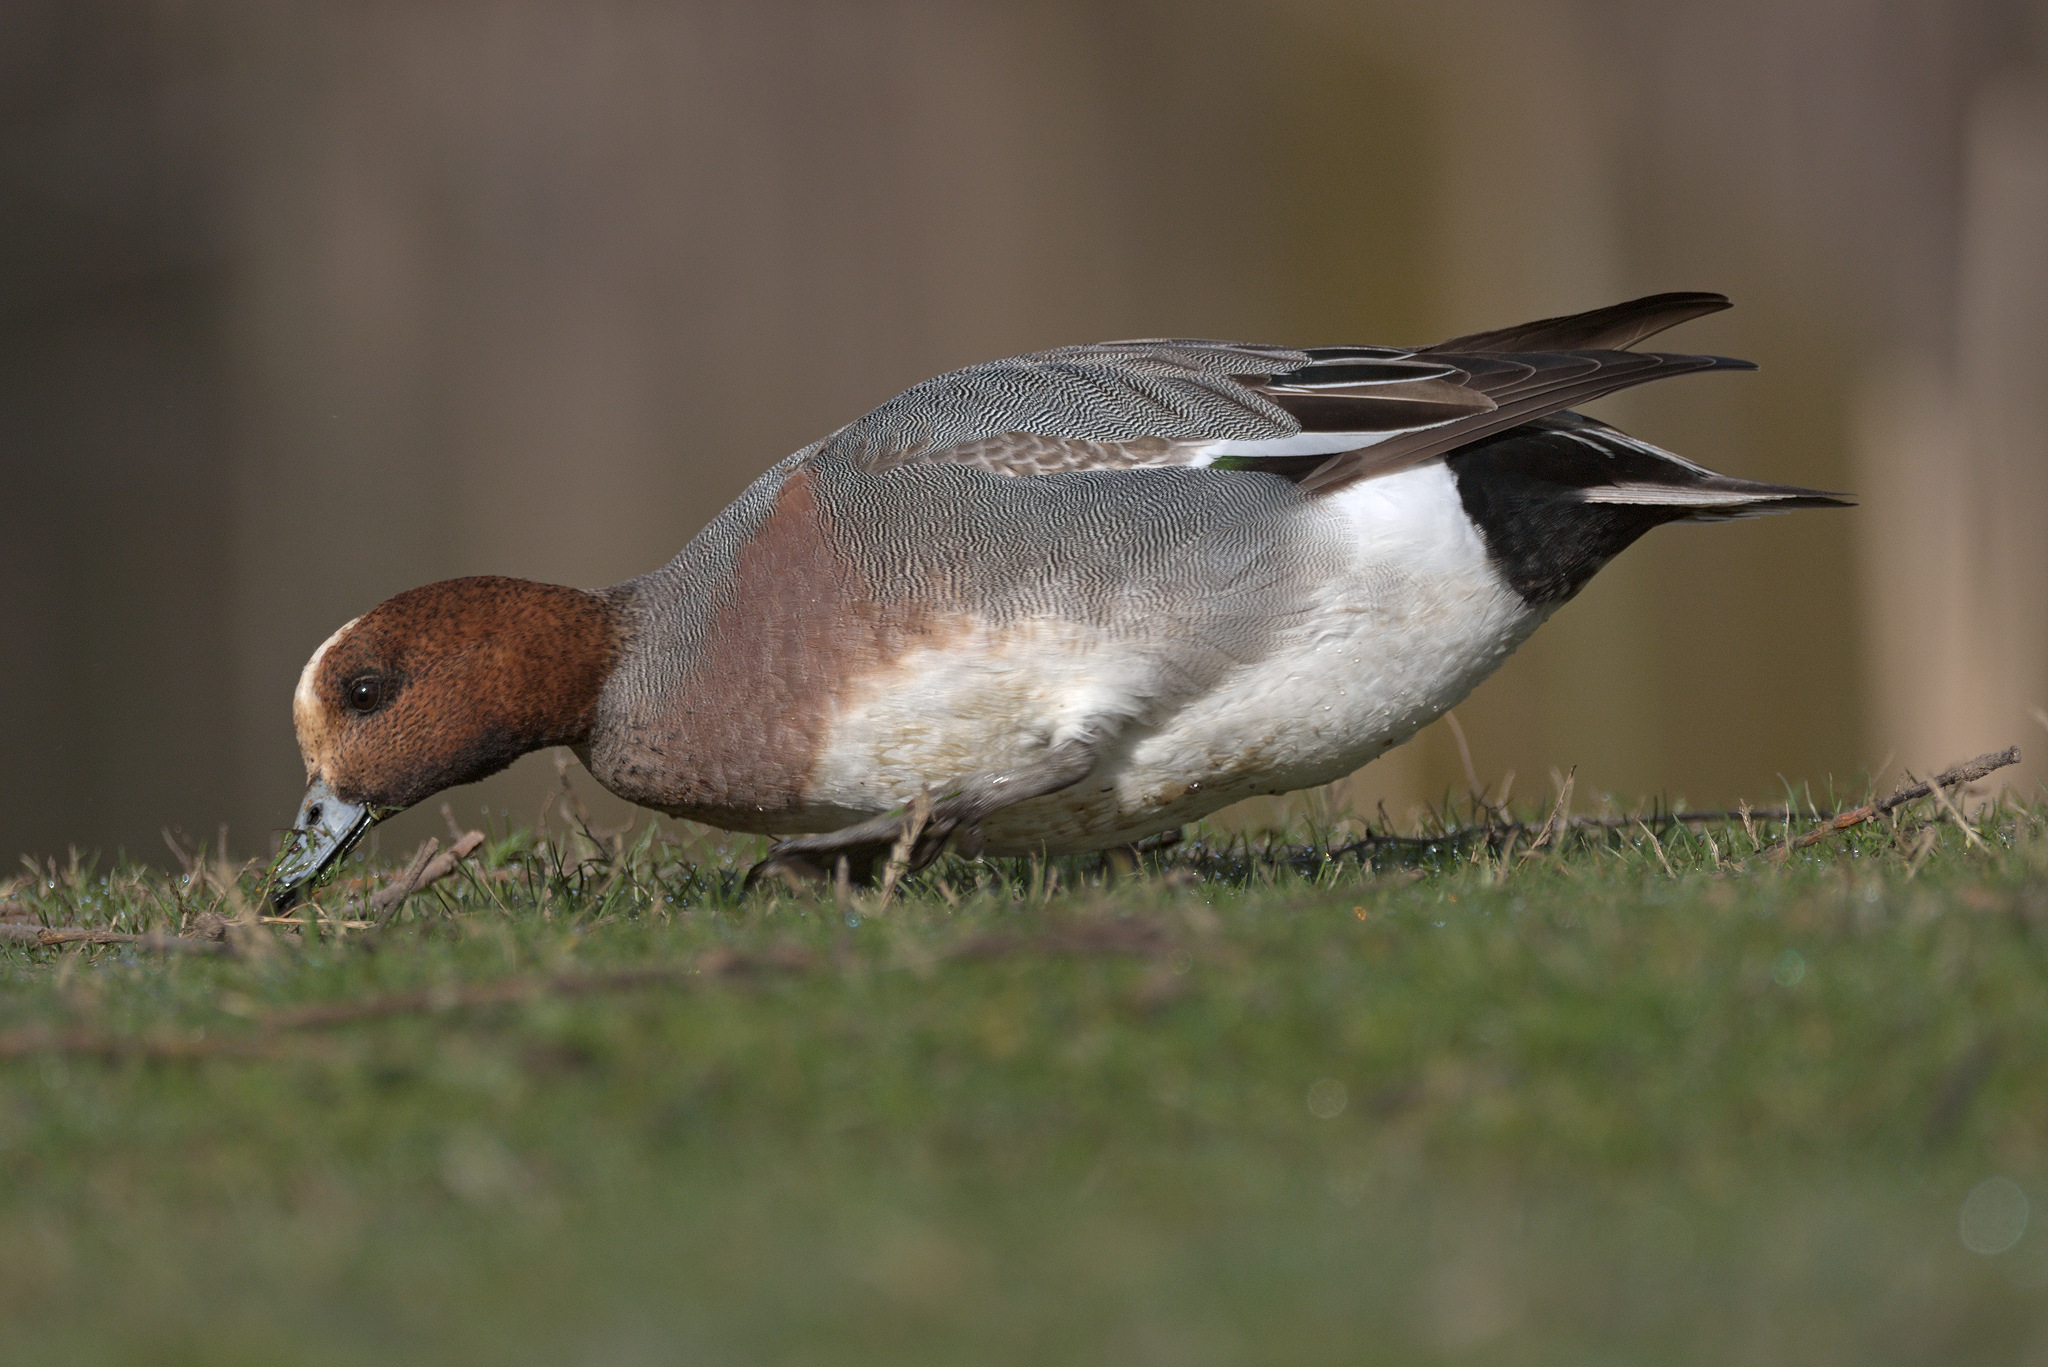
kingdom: Animalia
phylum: Chordata
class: Aves
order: Anseriformes
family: Anatidae
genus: Mareca
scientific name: Mareca penelope
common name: Eurasian wigeon
